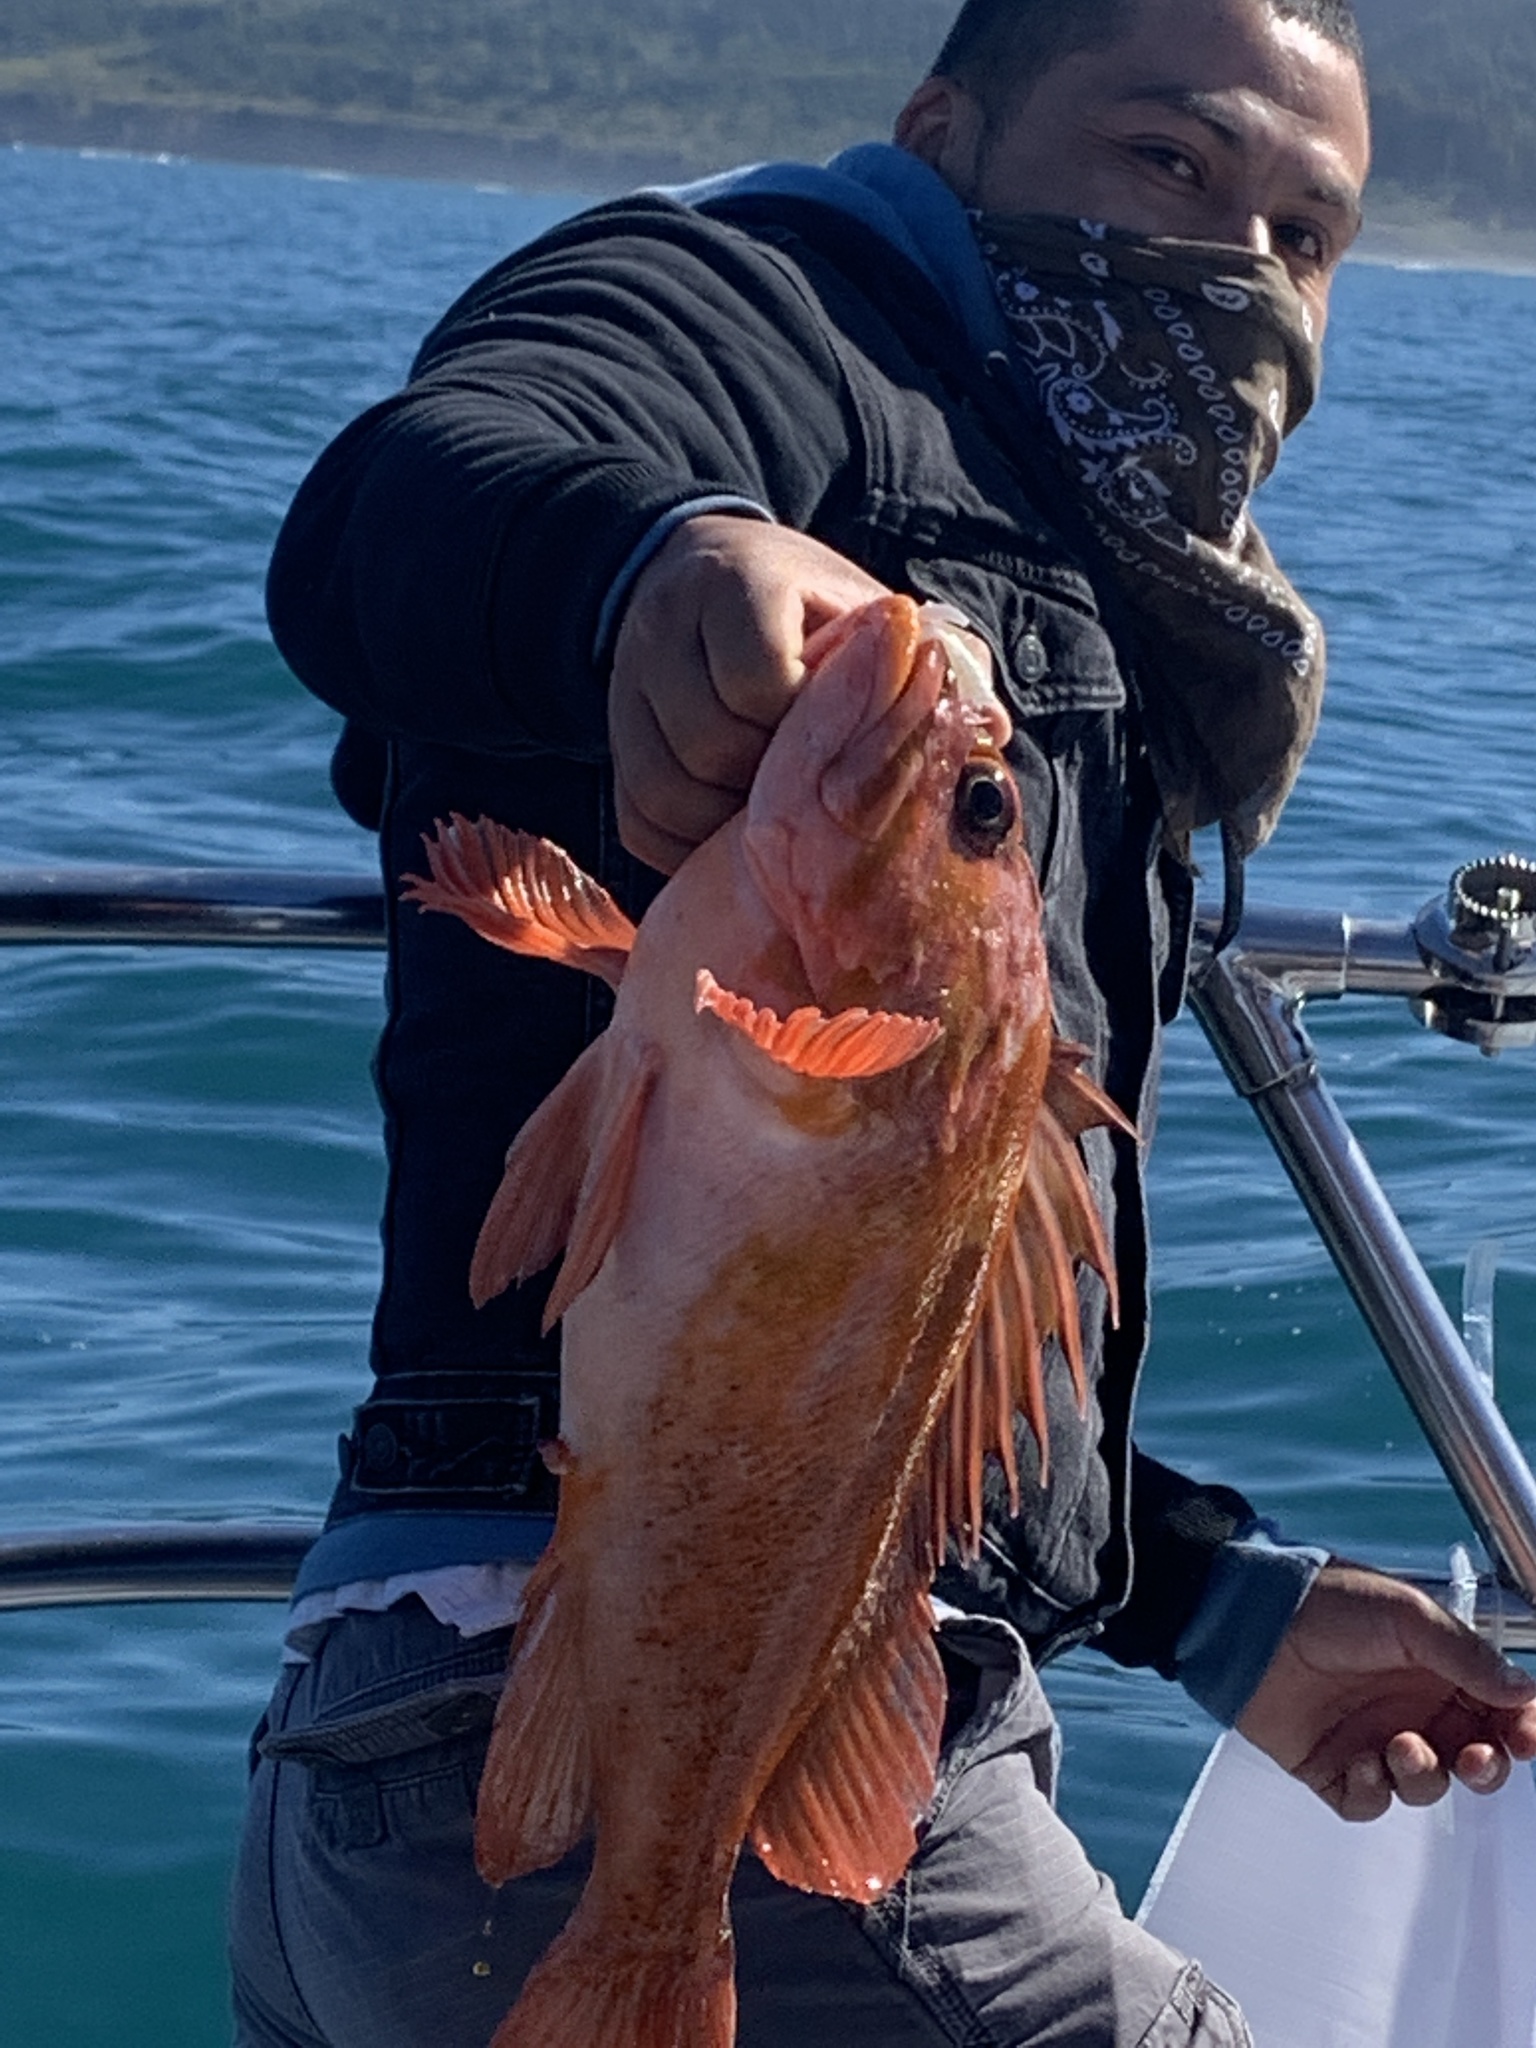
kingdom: Animalia
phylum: Chordata
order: Scorpaeniformes
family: Sebastidae
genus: Sebastes
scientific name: Sebastes caurinus
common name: Copper rockfish
